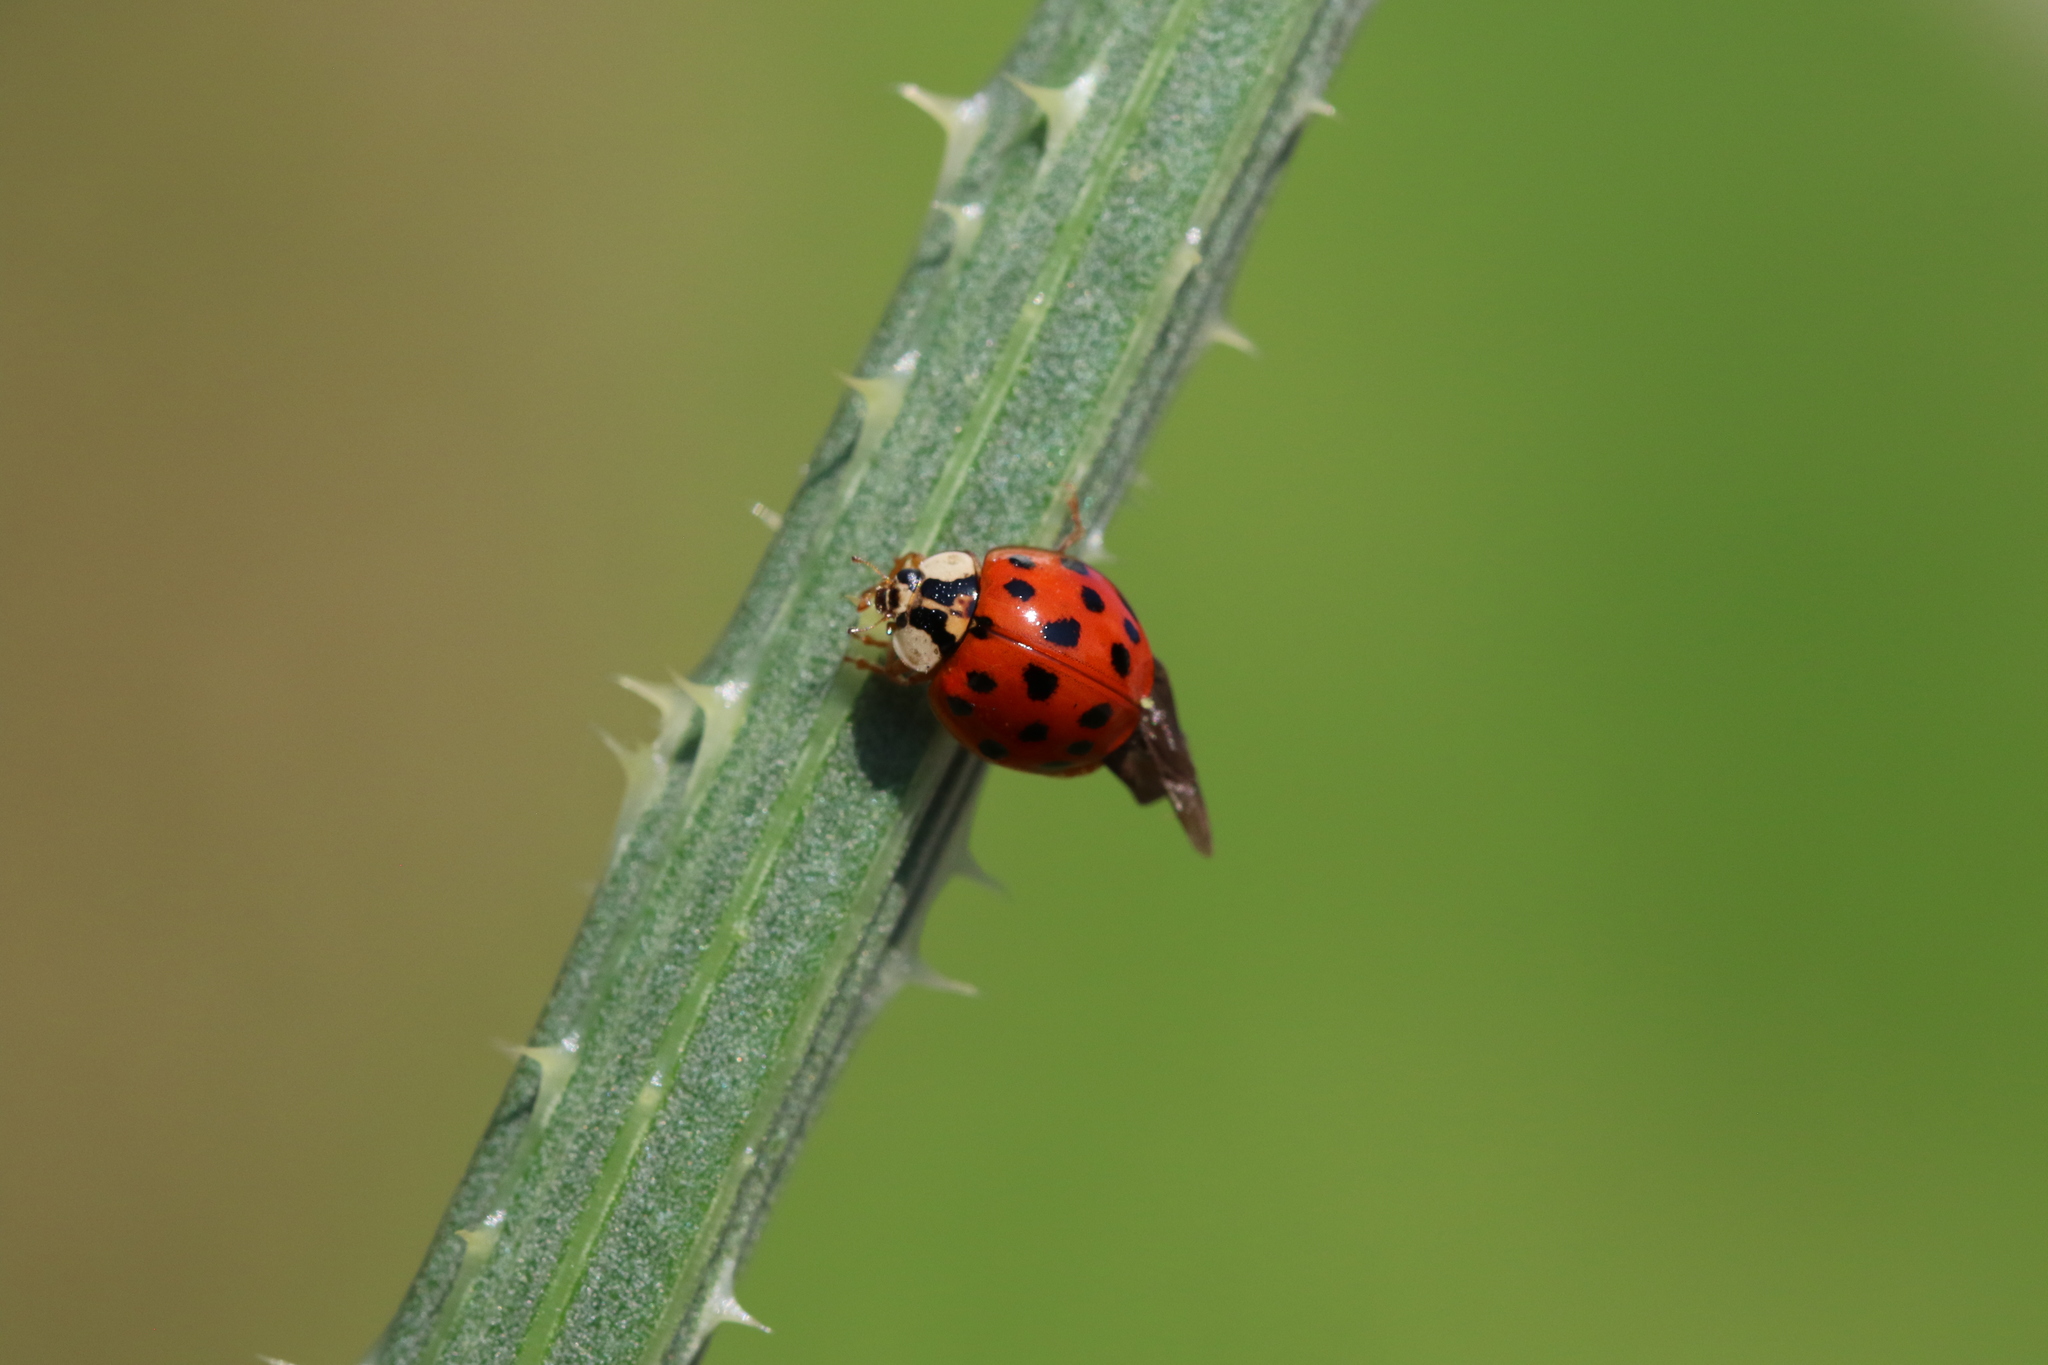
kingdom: Animalia
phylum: Arthropoda
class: Insecta
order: Coleoptera
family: Coccinellidae
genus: Harmonia
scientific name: Harmonia axyridis
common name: Harlequin ladybird
